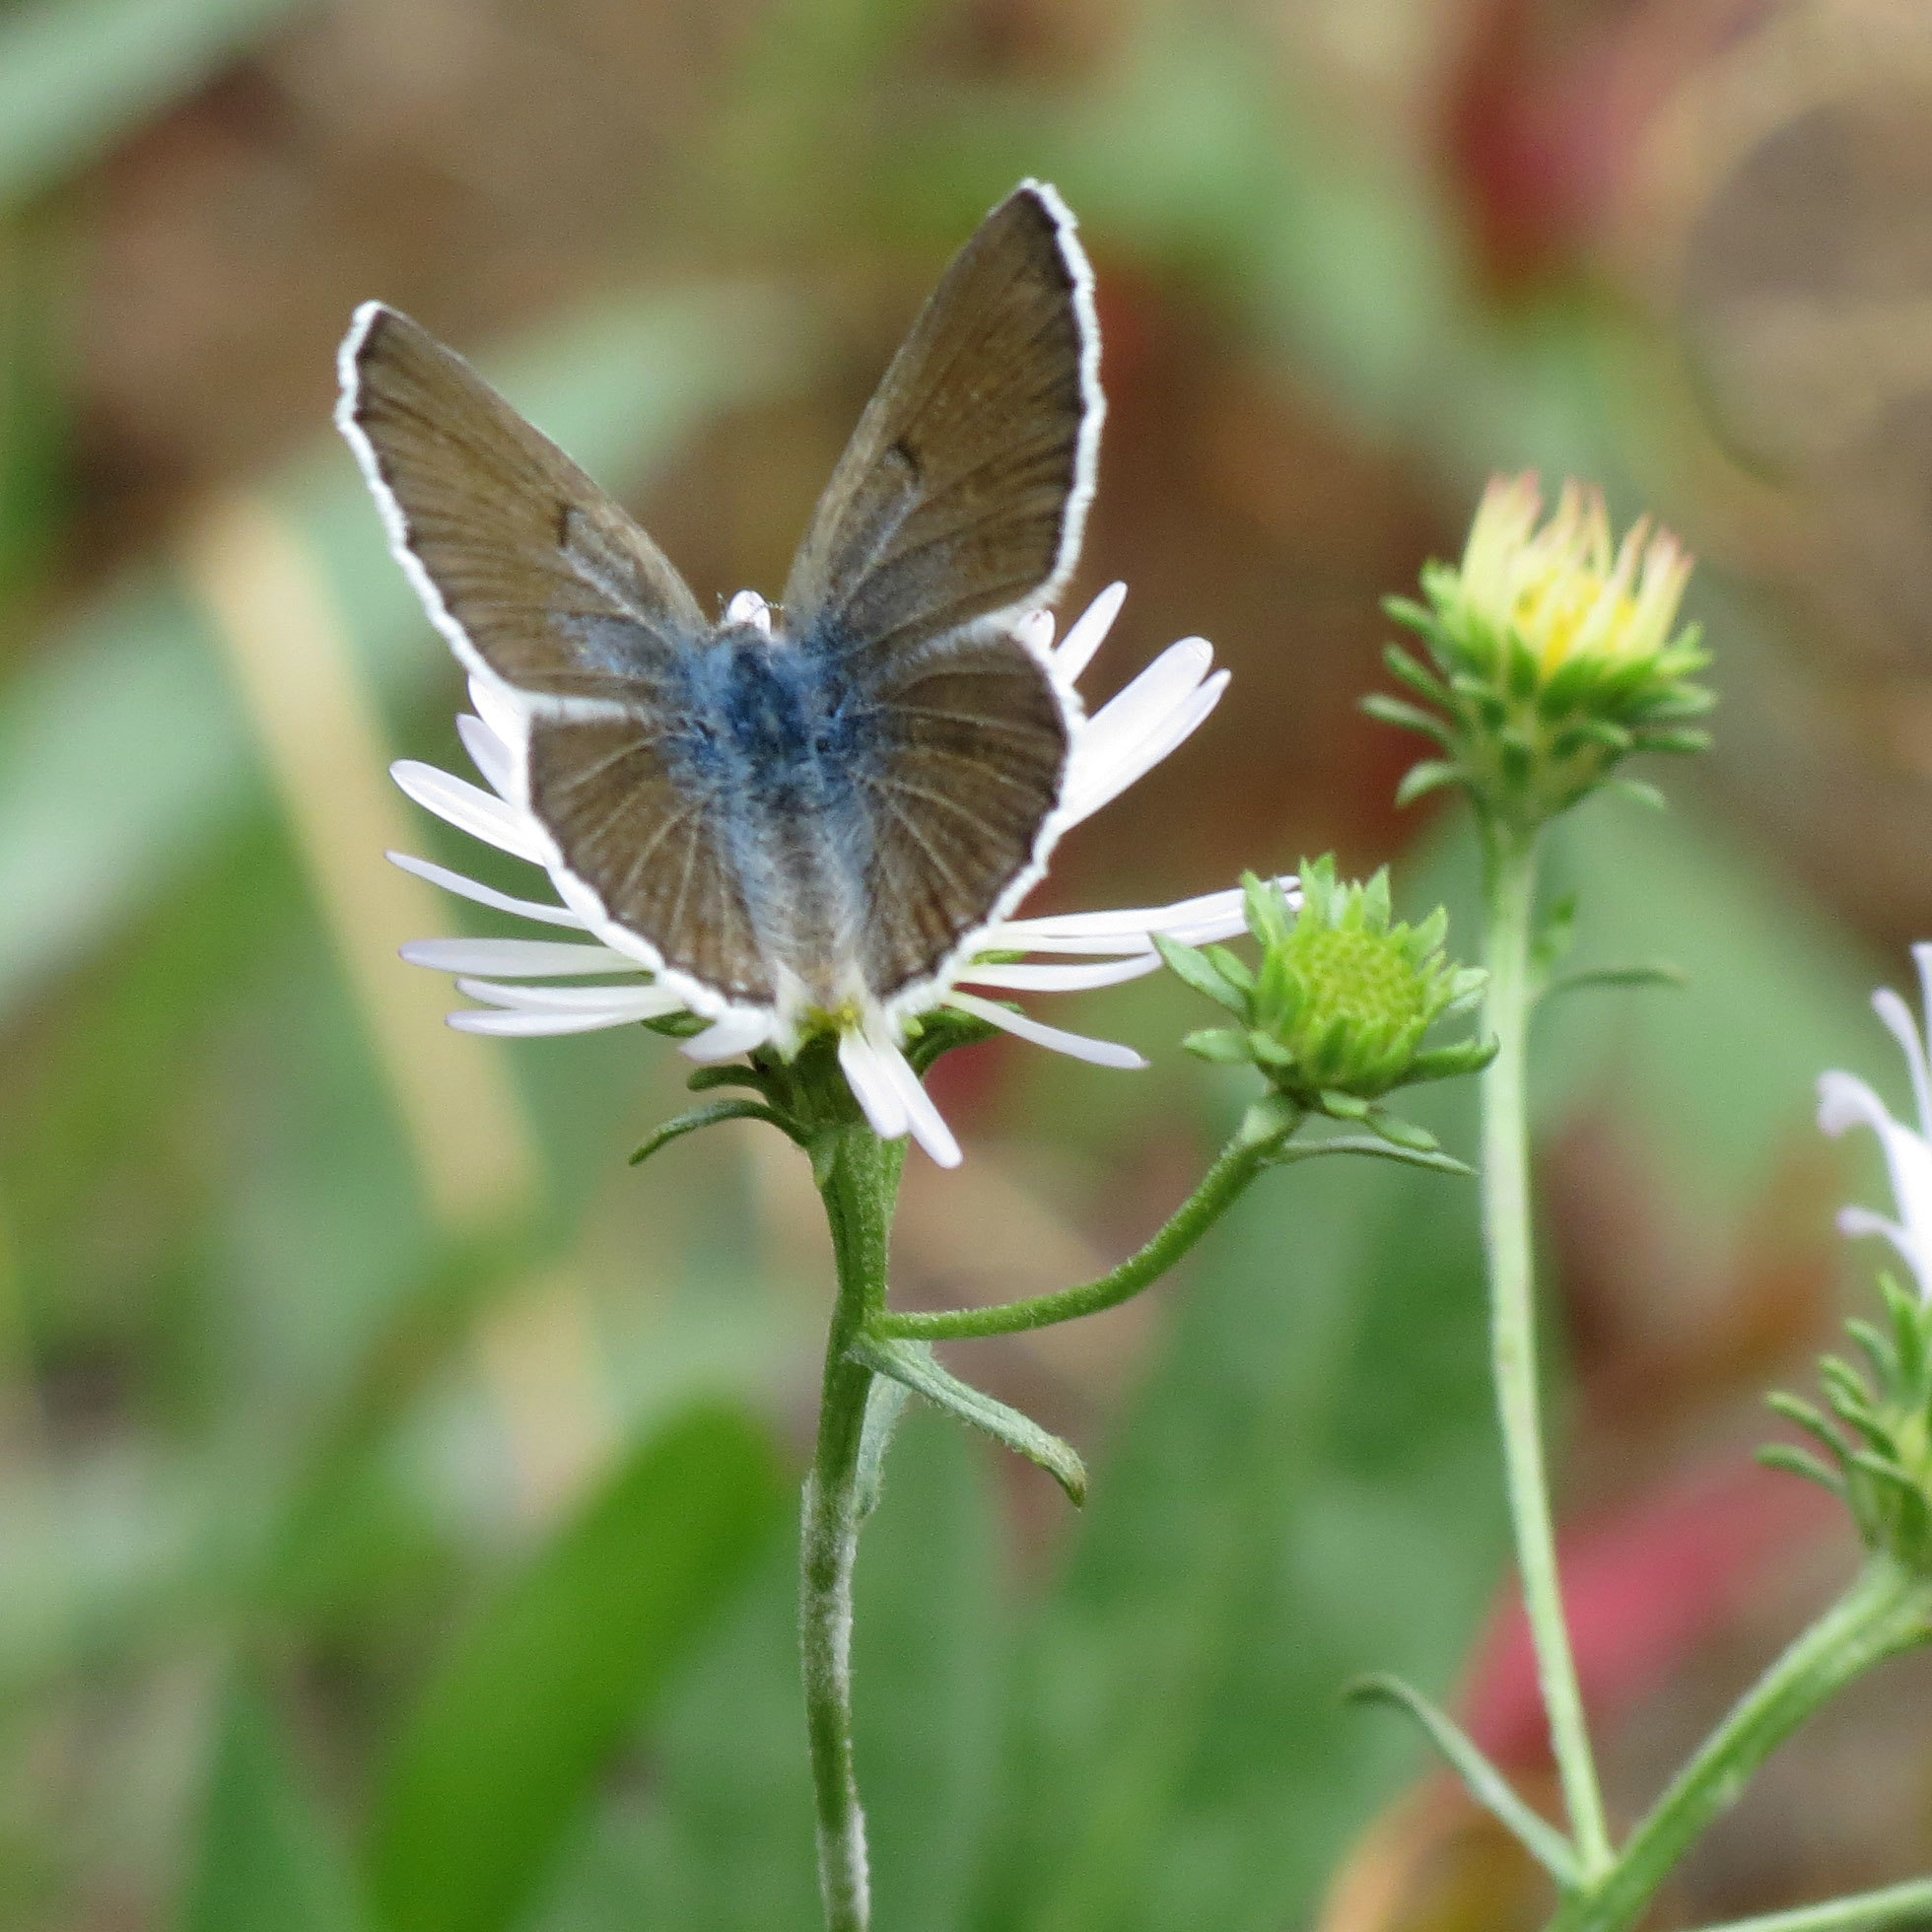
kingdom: Animalia
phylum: Arthropoda
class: Insecta
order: Lepidoptera
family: Lycaenidae
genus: Icaricia
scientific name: Icaricia icarioides
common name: Boisduval's blue
